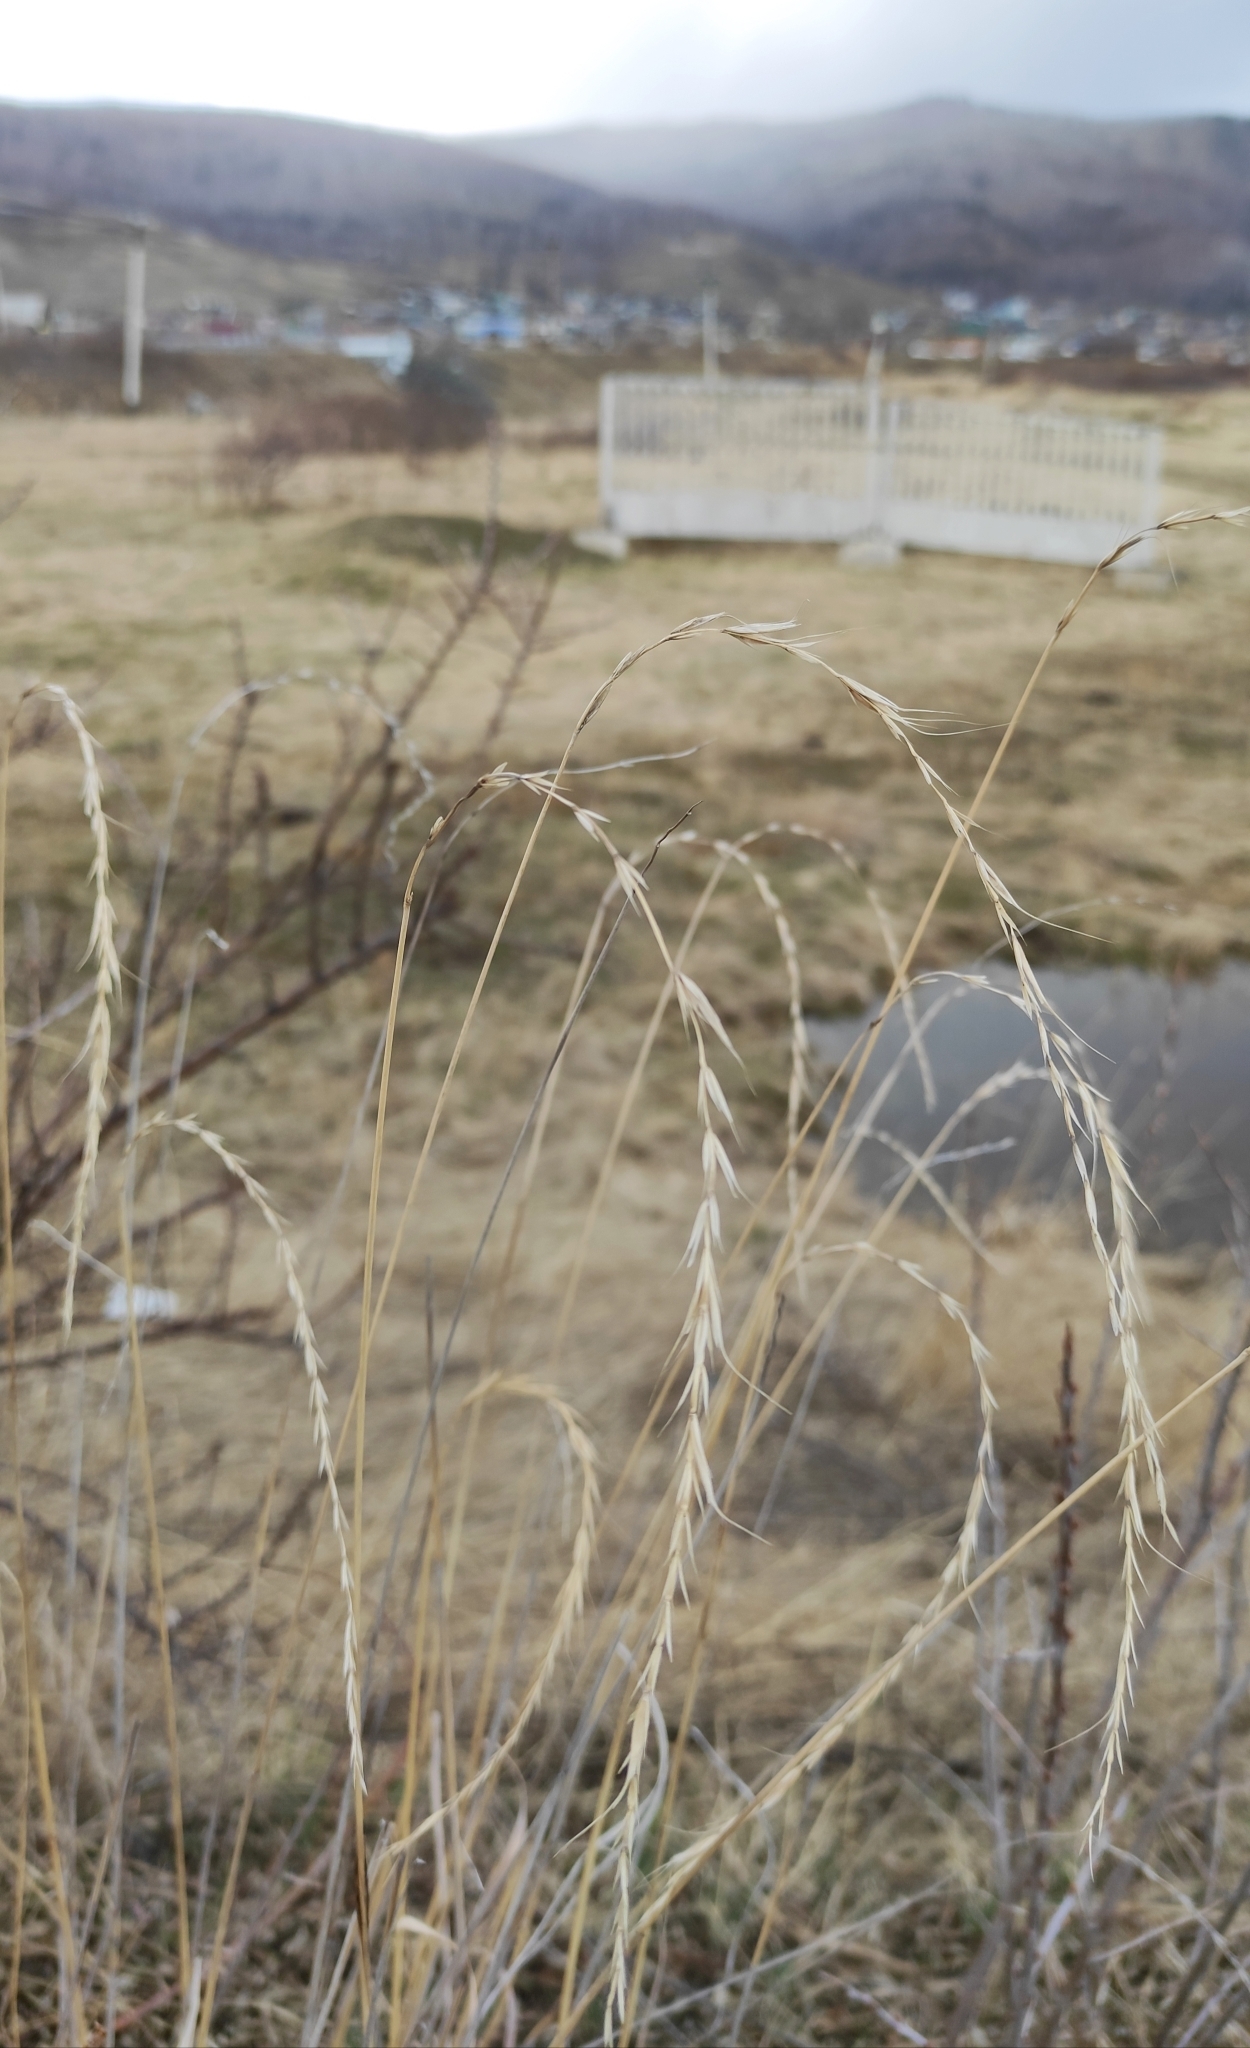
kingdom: Plantae
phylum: Tracheophyta
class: Liliopsida
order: Poales
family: Poaceae
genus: Elymus
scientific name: Elymus sibiricus
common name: Siberian wildrye
